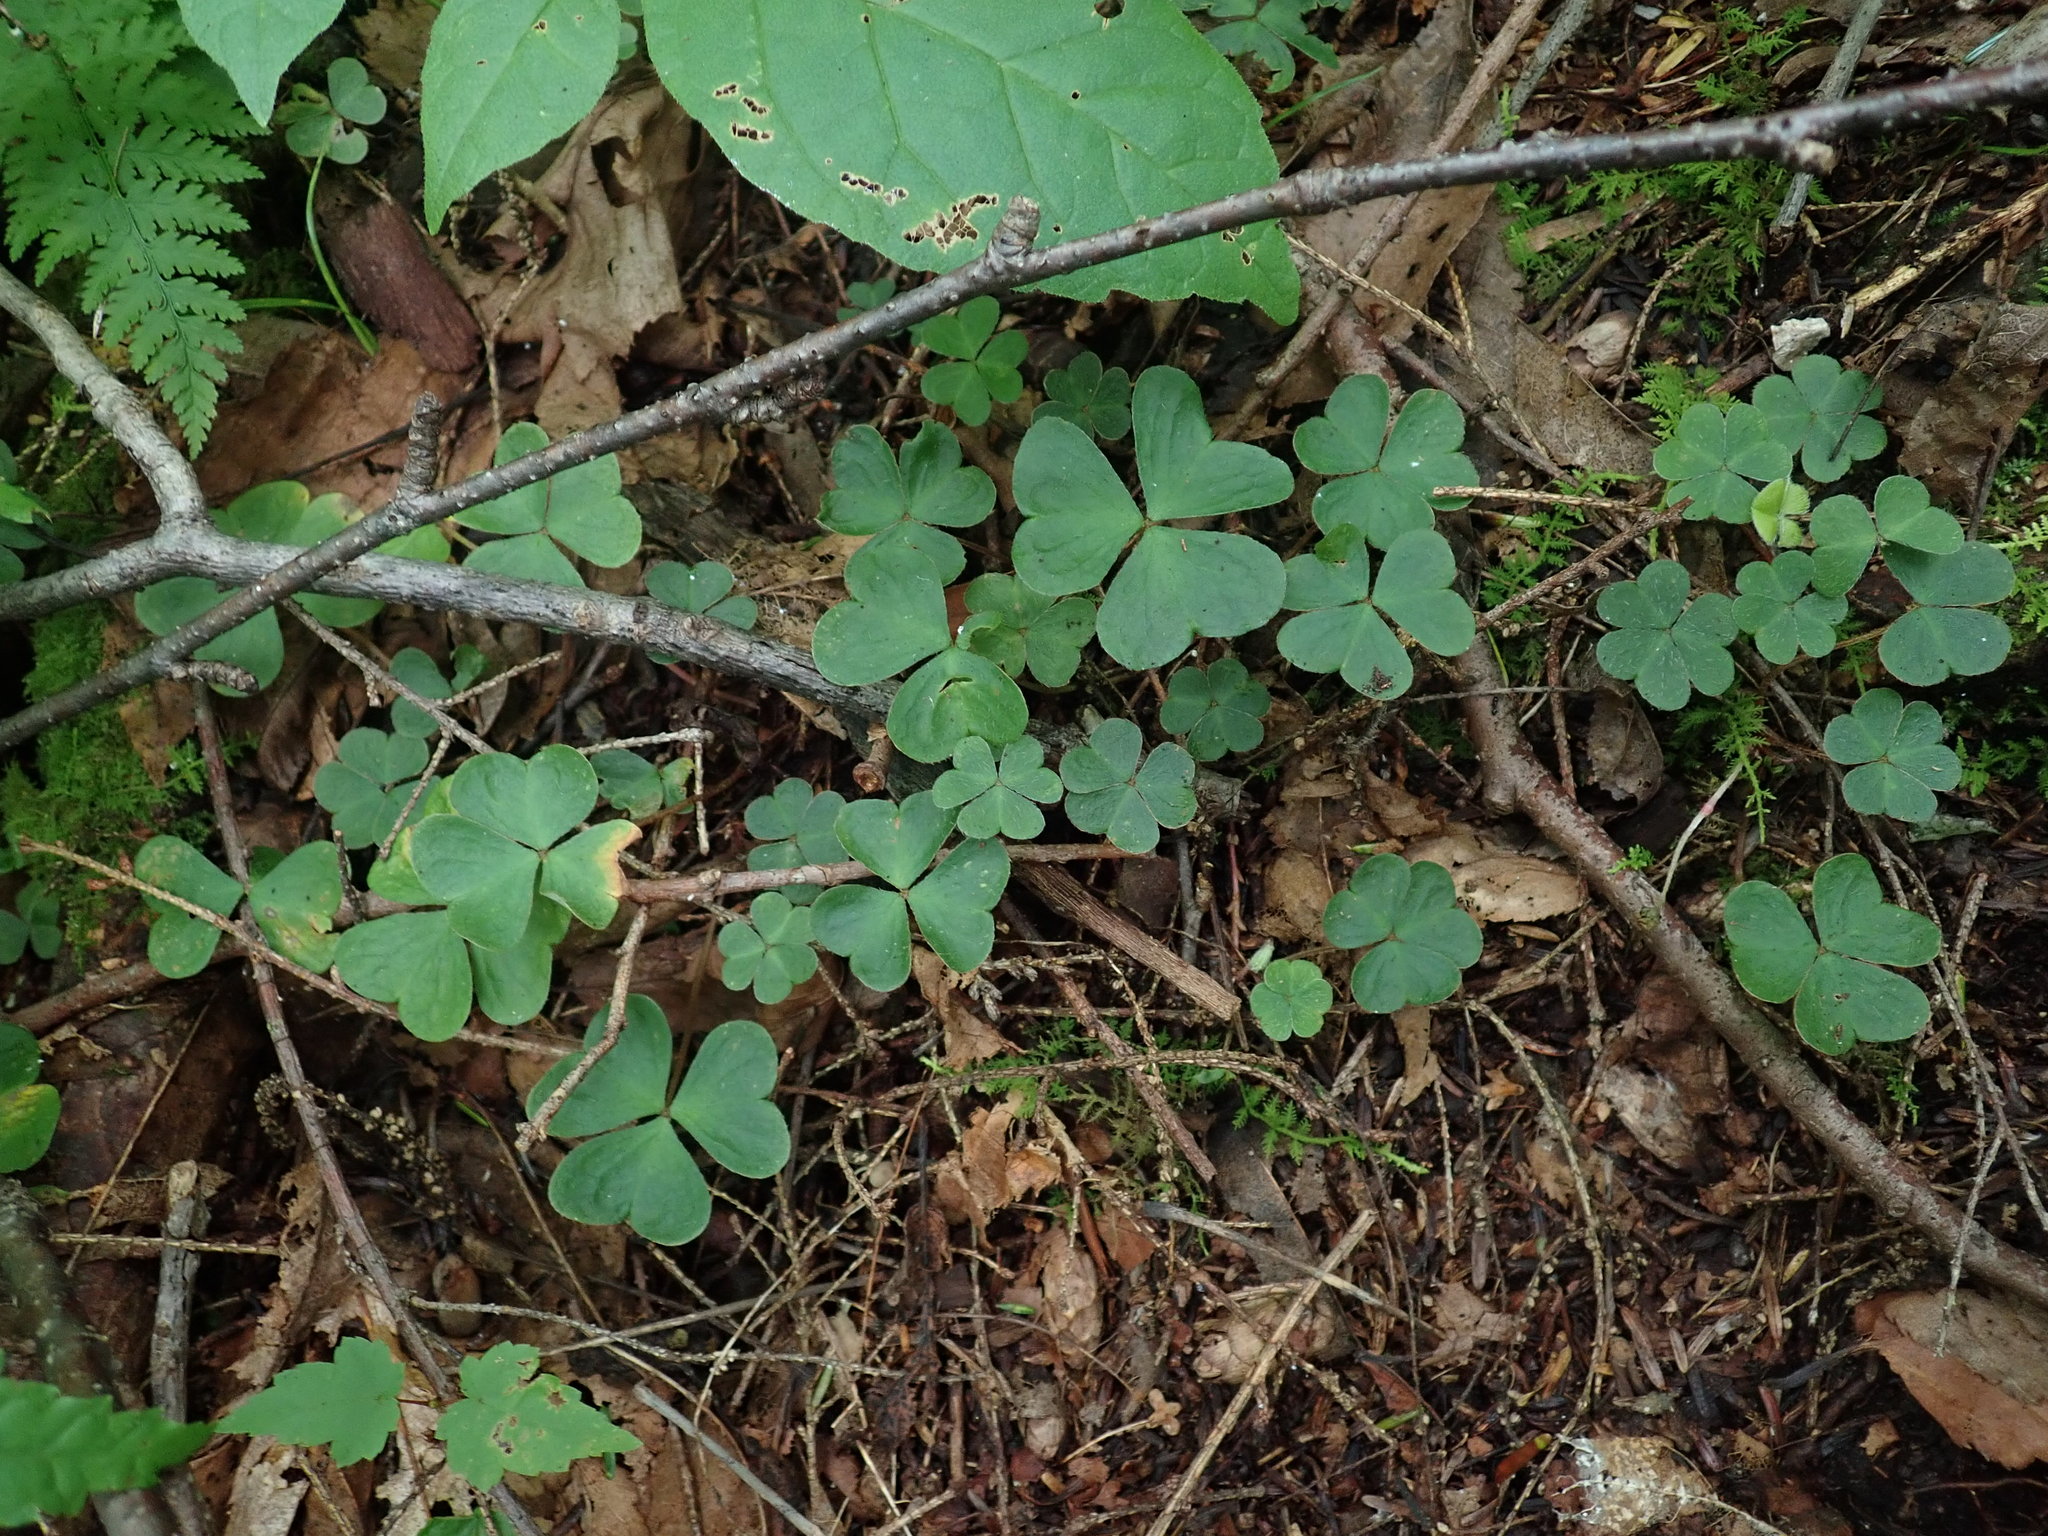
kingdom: Plantae
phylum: Tracheophyta
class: Magnoliopsida
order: Oxalidales
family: Oxalidaceae
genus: Oxalis
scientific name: Oxalis montana
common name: American wood-sorrel
